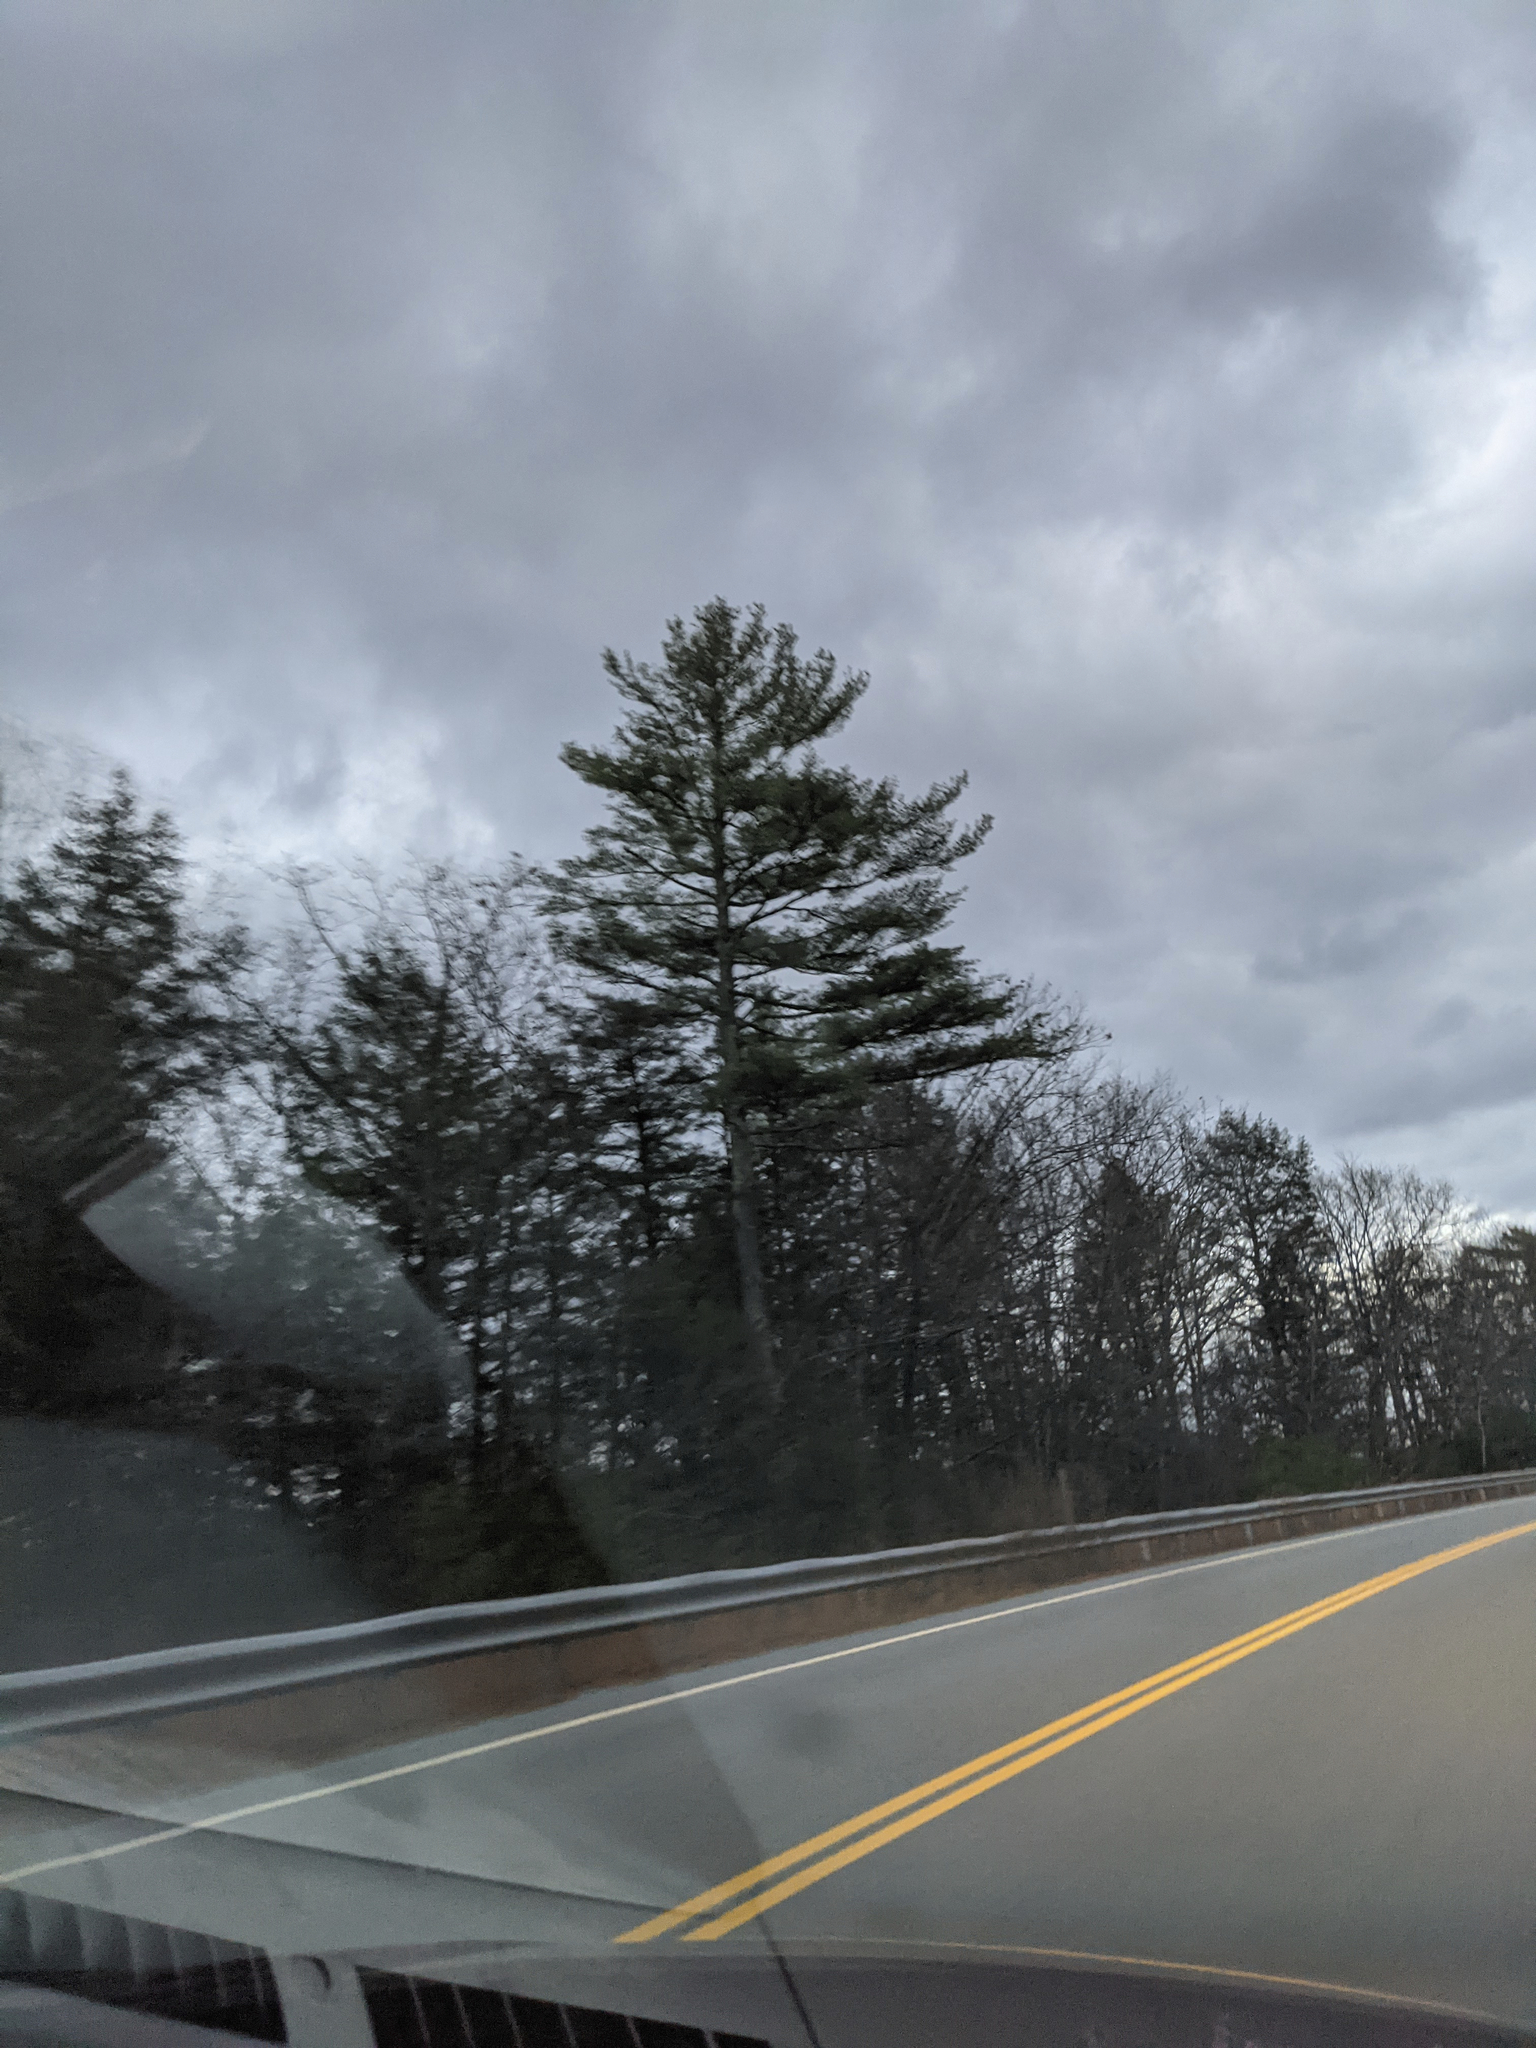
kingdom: Plantae
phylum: Tracheophyta
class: Pinopsida
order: Pinales
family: Pinaceae
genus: Pinus
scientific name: Pinus strobus
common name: Weymouth pine
